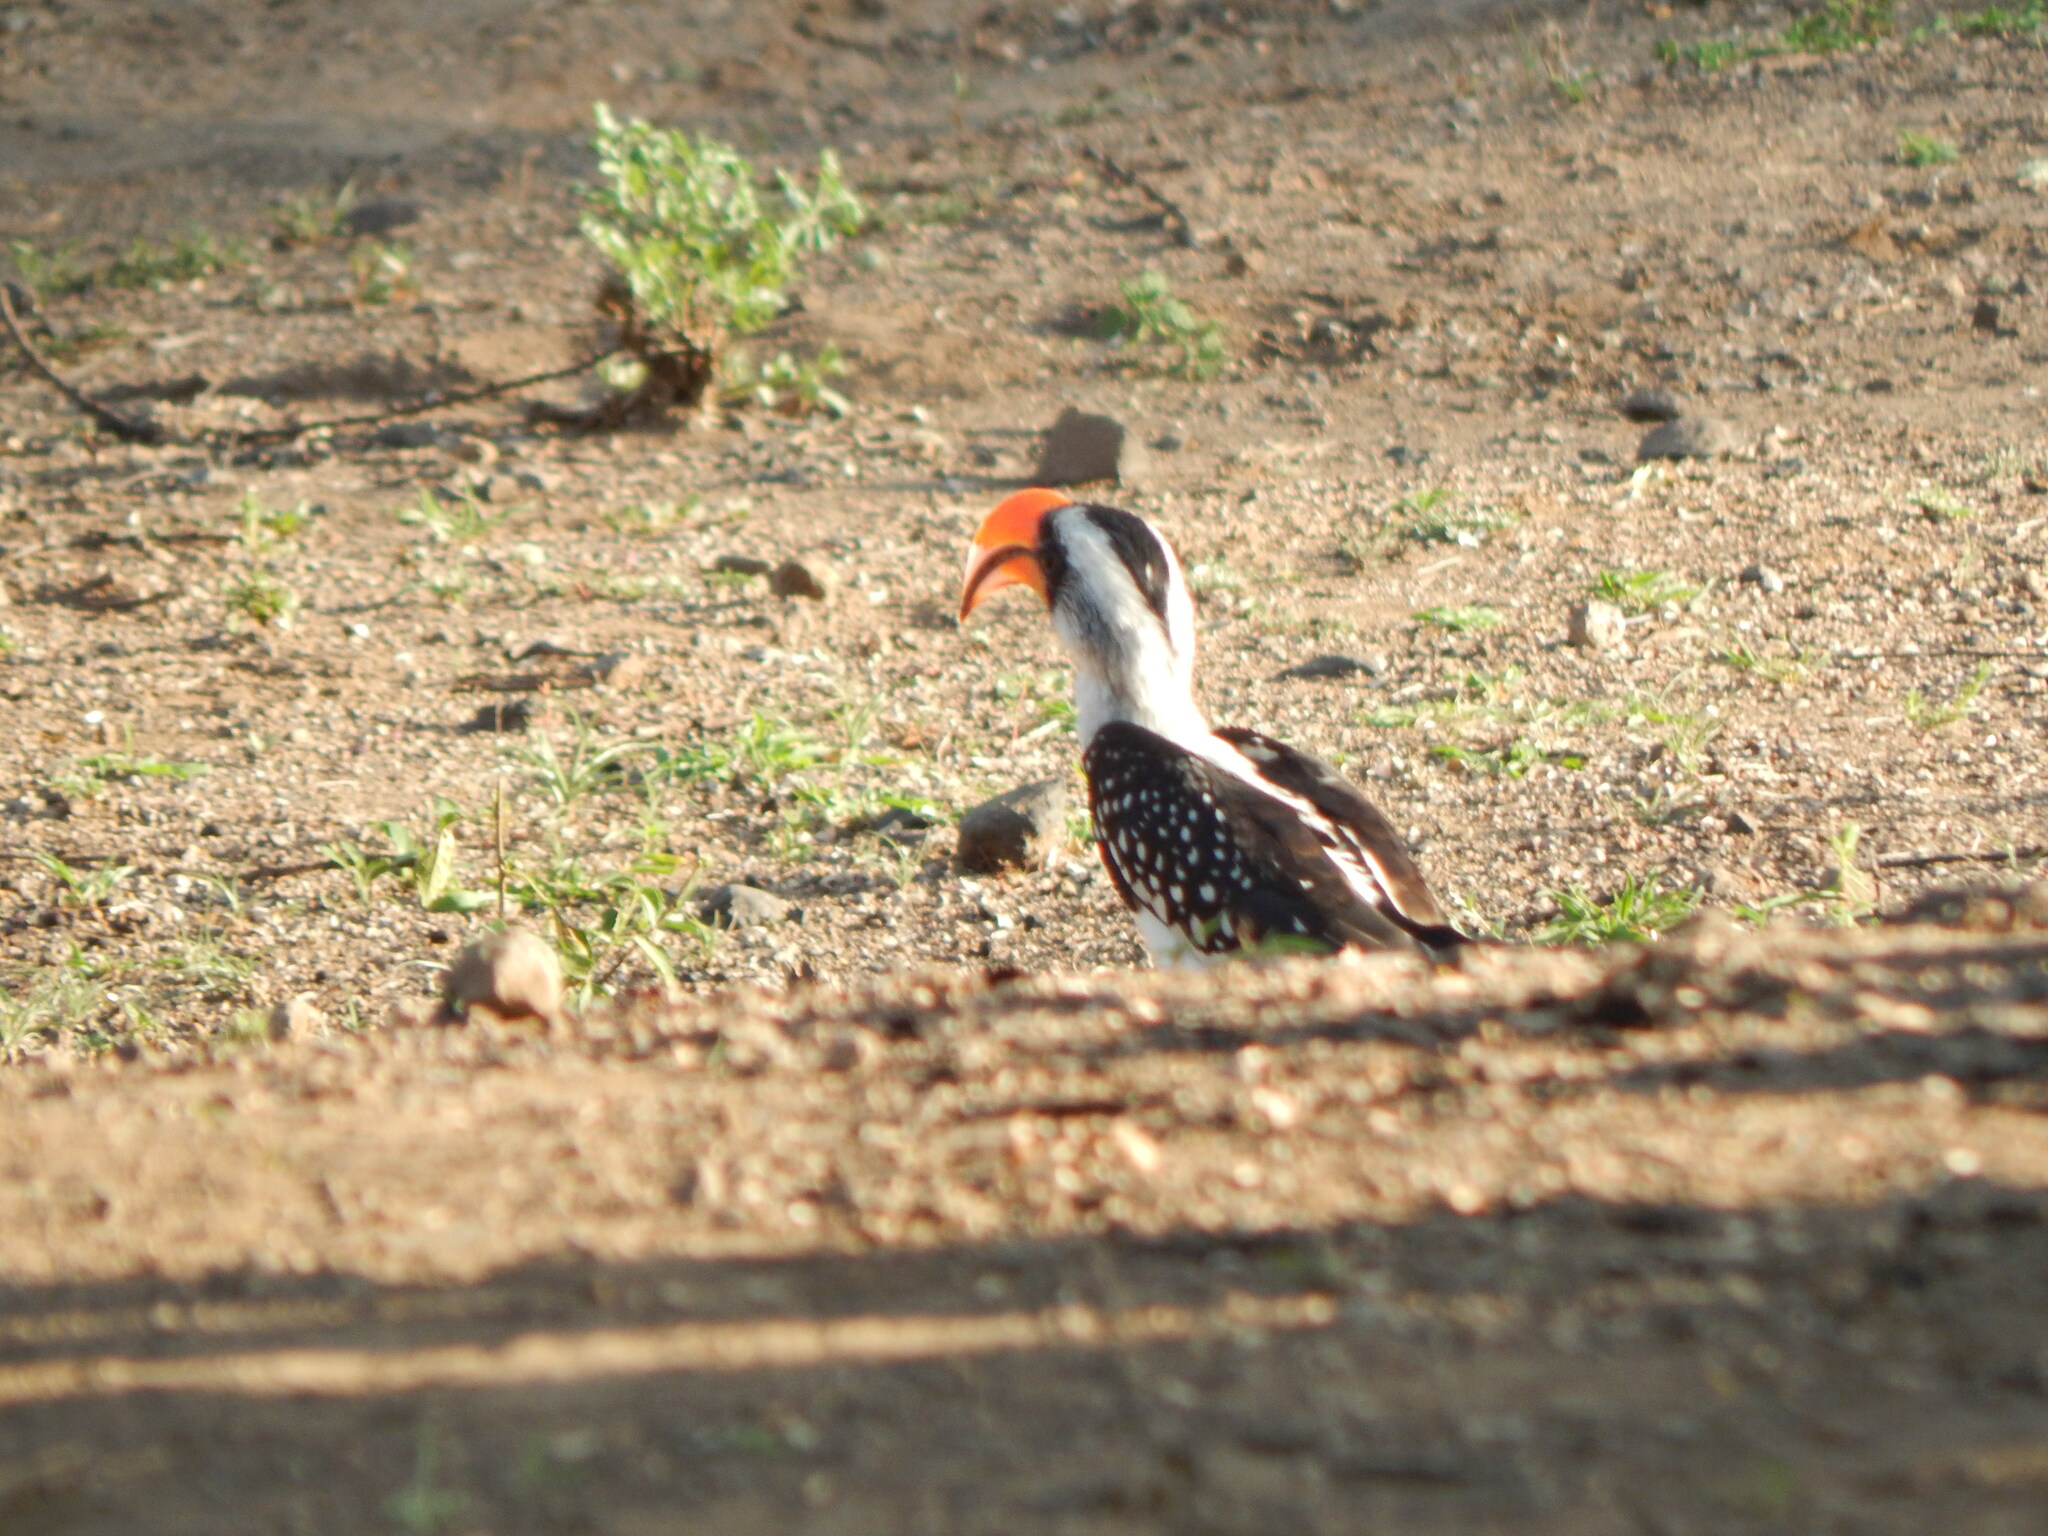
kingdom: Animalia
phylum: Chordata
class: Aves
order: Bucerotiformes
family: Bucerotidae
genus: Tockus
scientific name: Tockus jacksoni
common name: Jackson's hornbill
